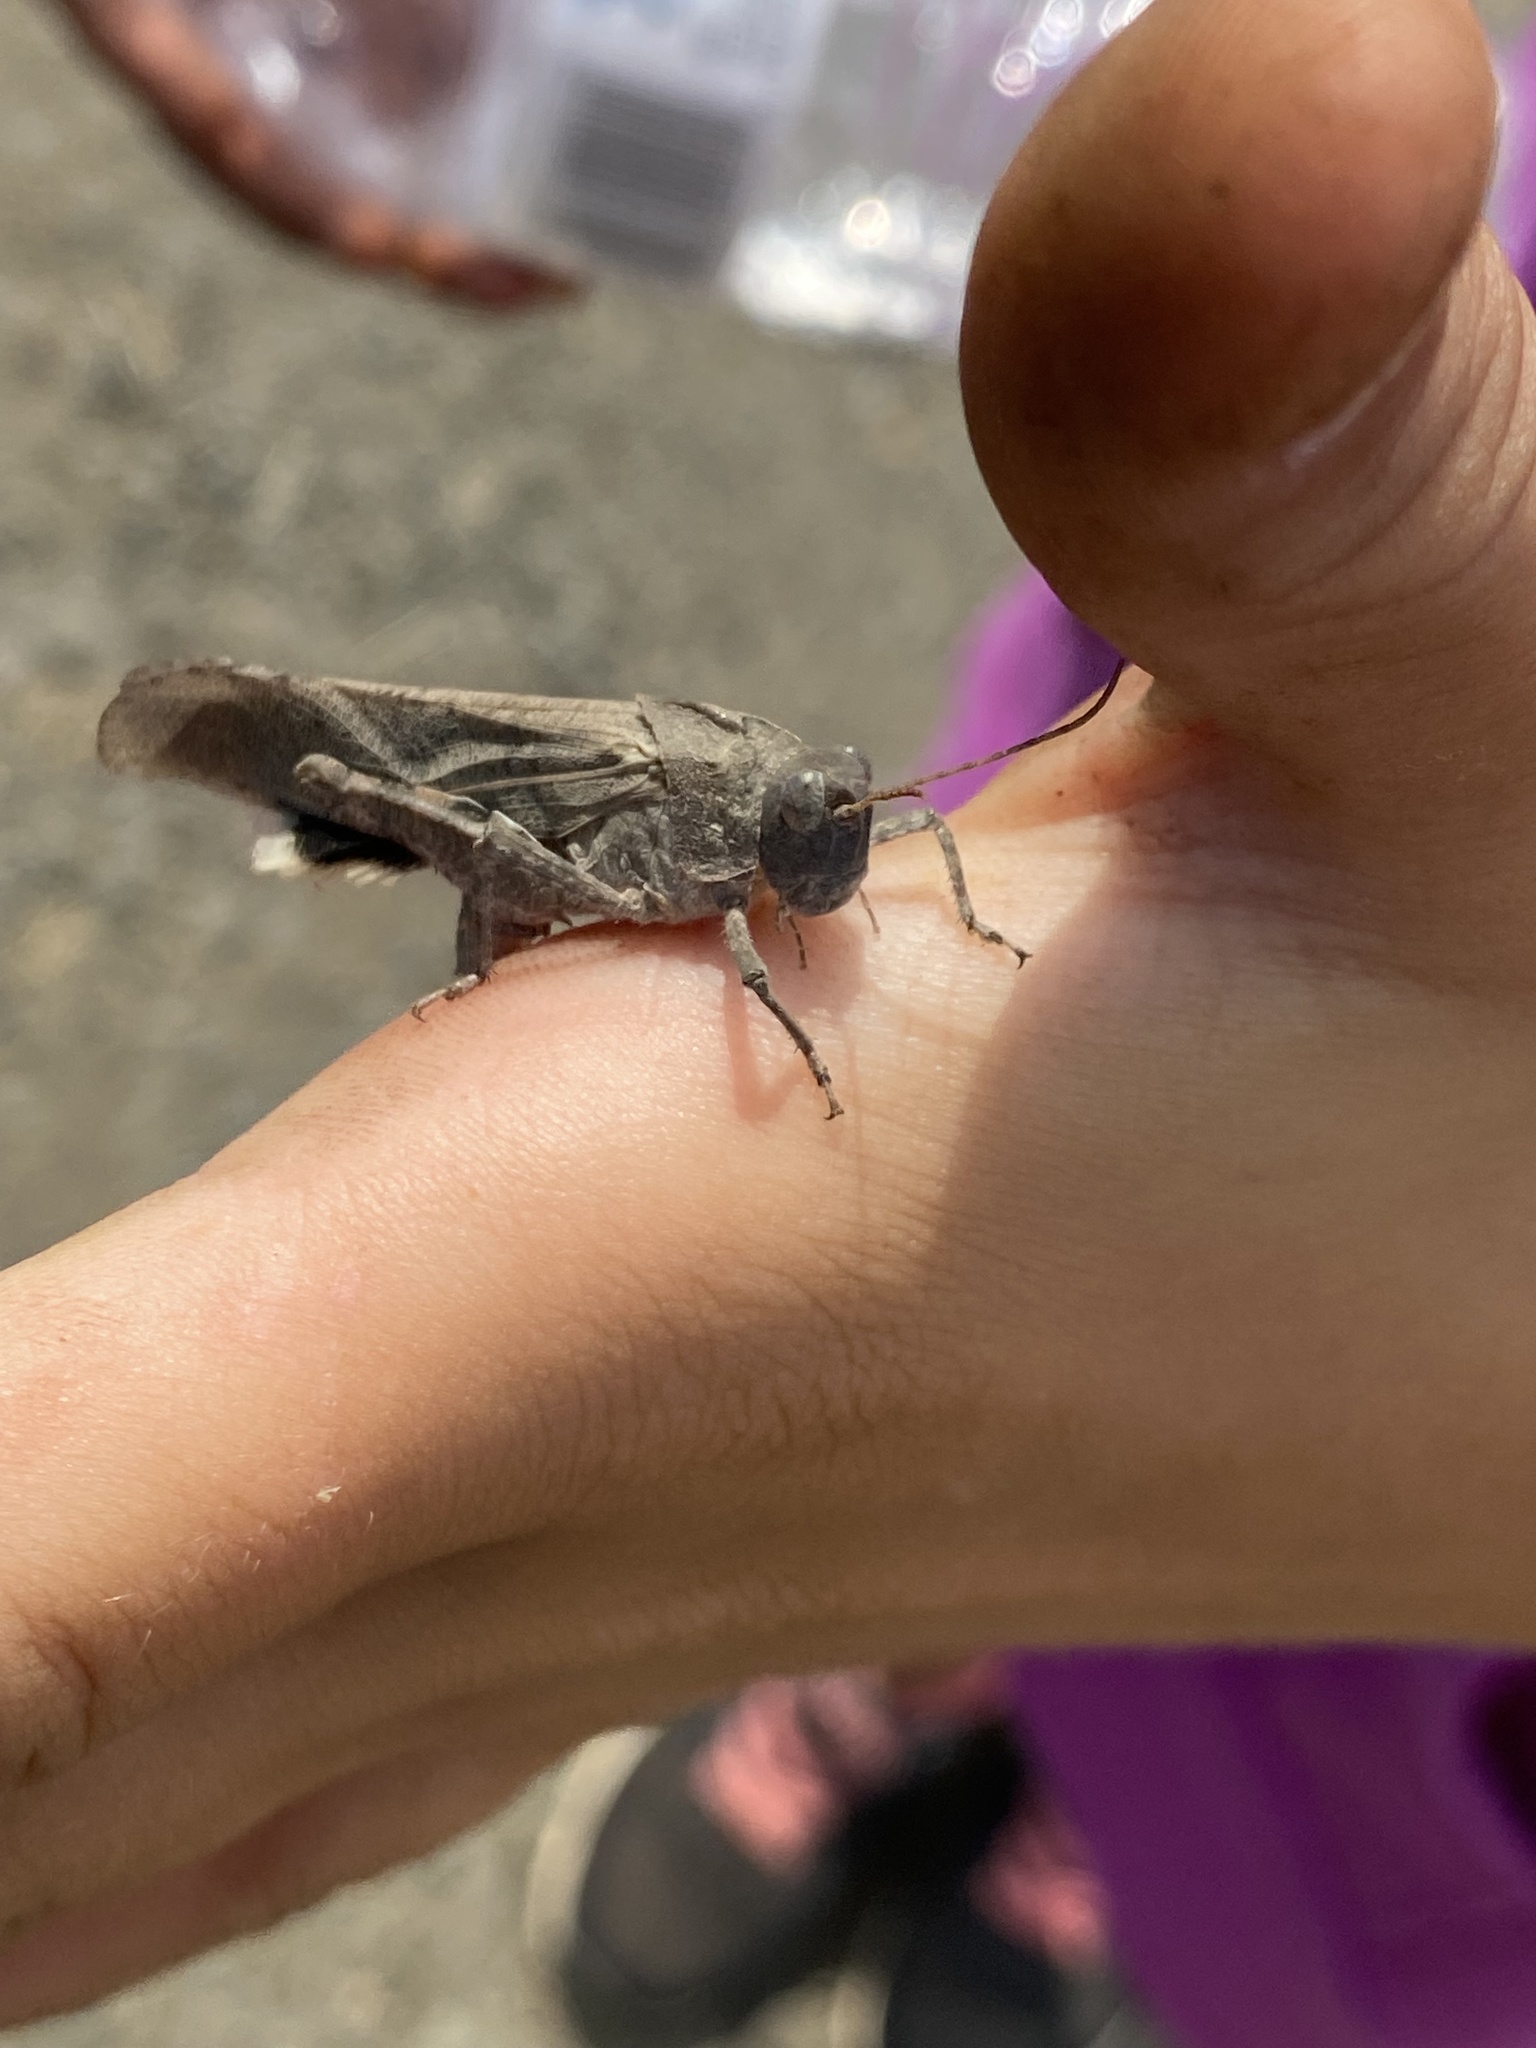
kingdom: Animalia
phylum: Arthropoda
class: Insecta
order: Orthoptera
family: Acrididae
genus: Dissosteira
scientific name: Dissosteira carolina
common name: Carolina grasshopper
